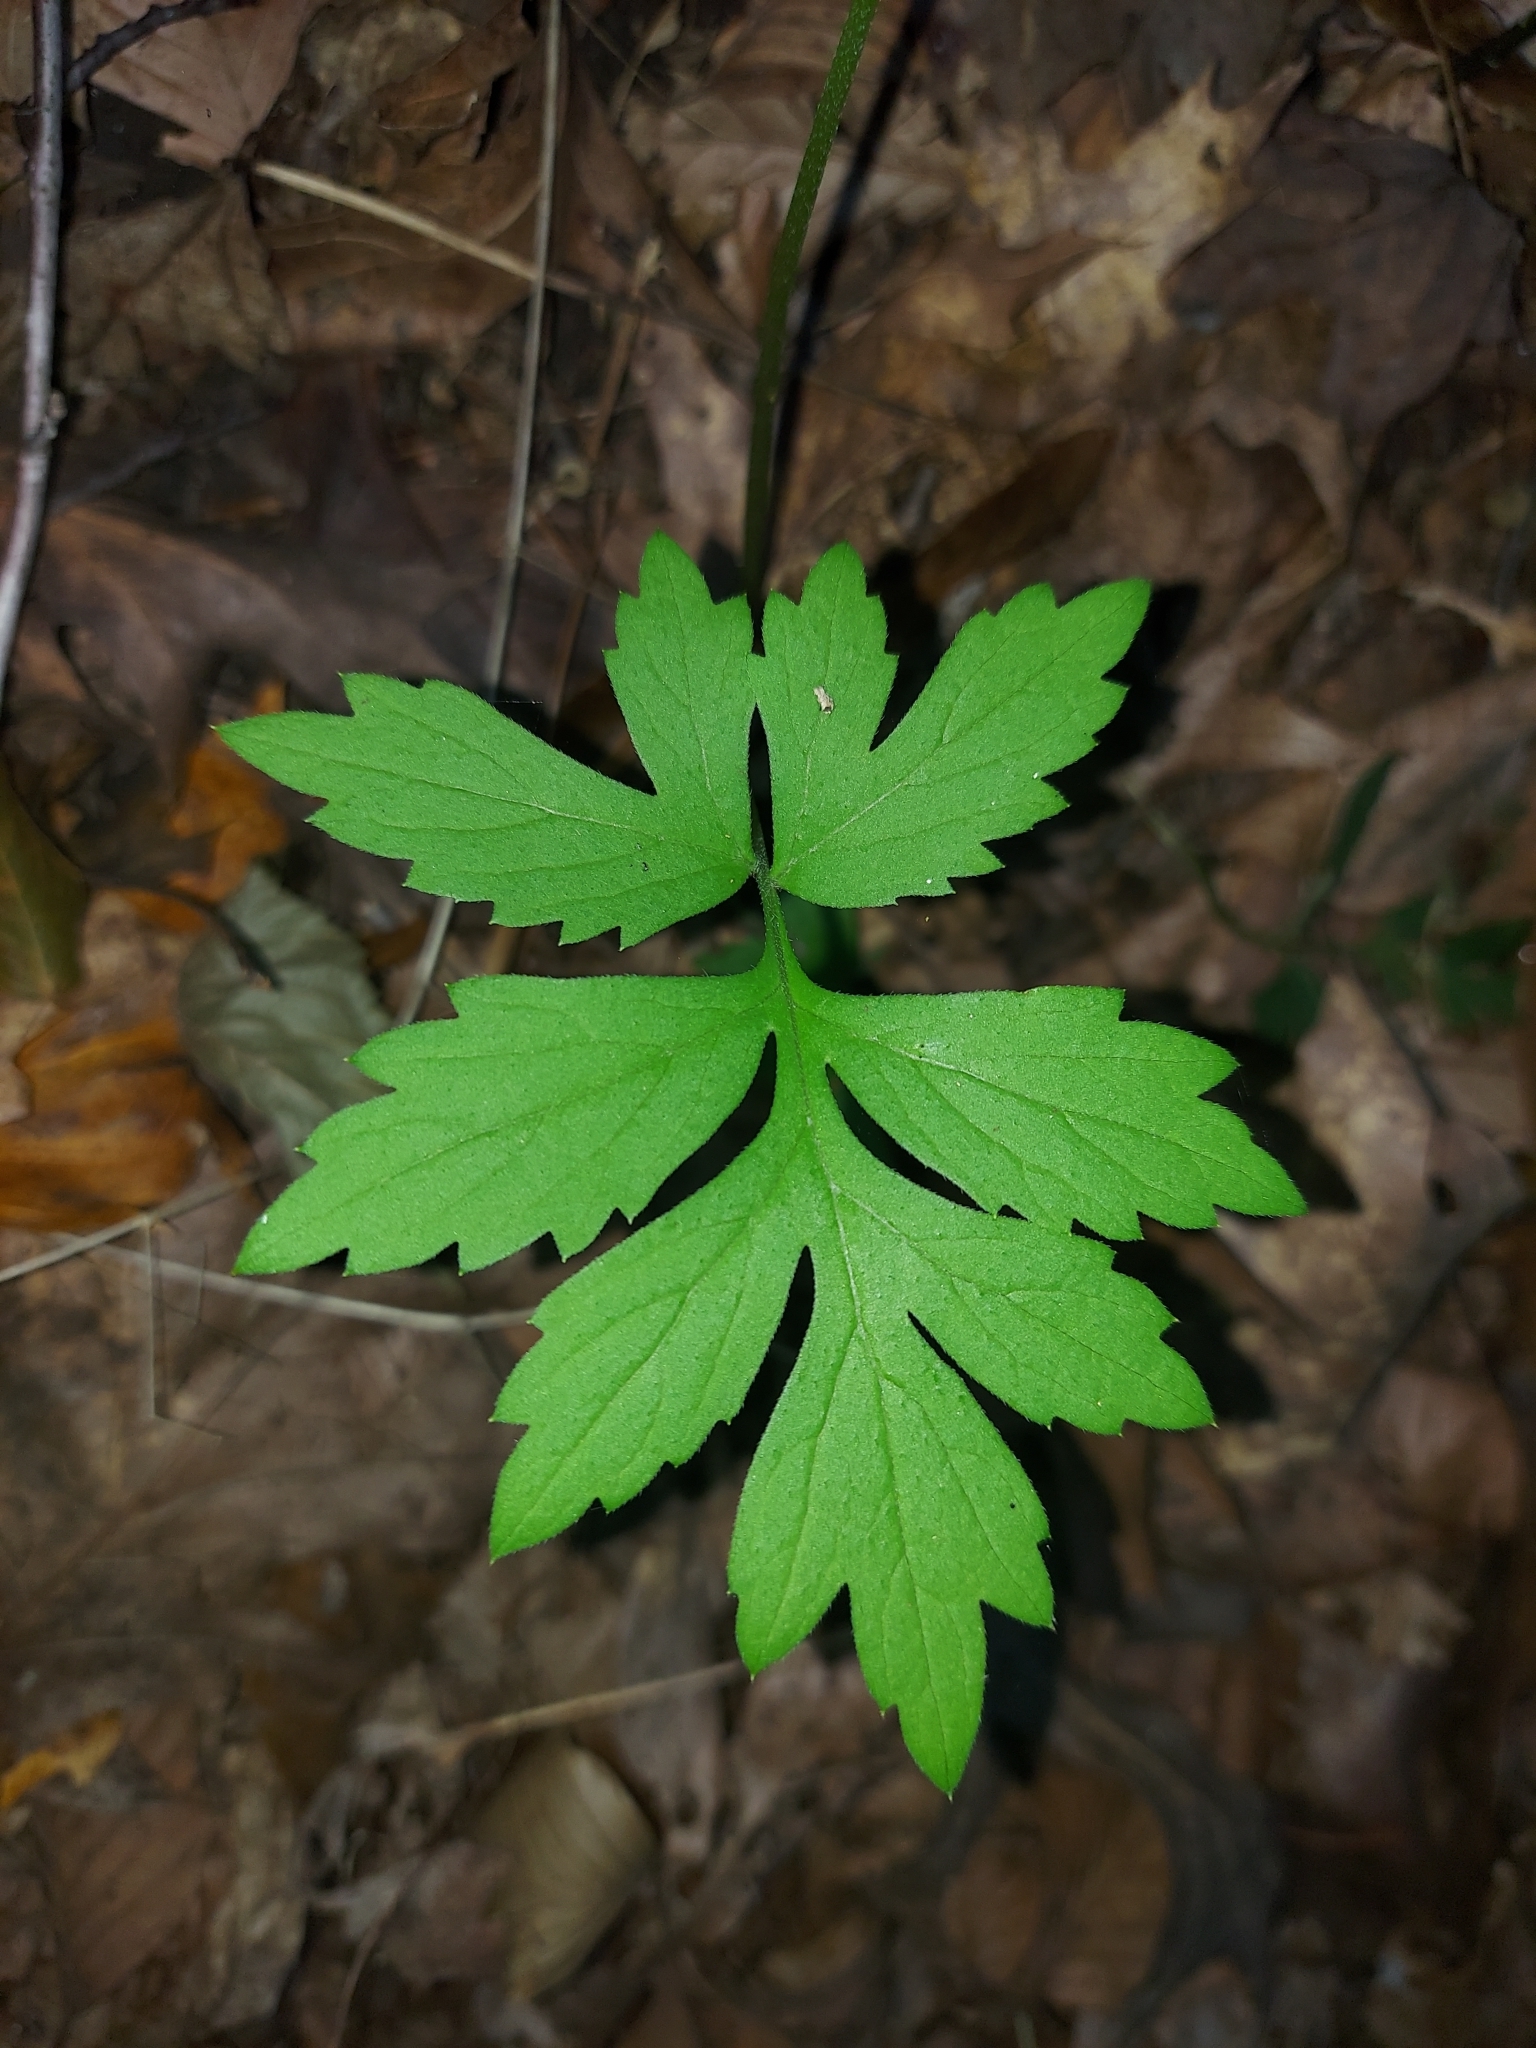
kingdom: Plantae
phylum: Tracheophyta
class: Magnoliopsida
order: Boraginales
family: Hydrophyllaceae
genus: Hydrophyllum
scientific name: Hydrophyllum virginianum
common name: Virginia waterleaf
